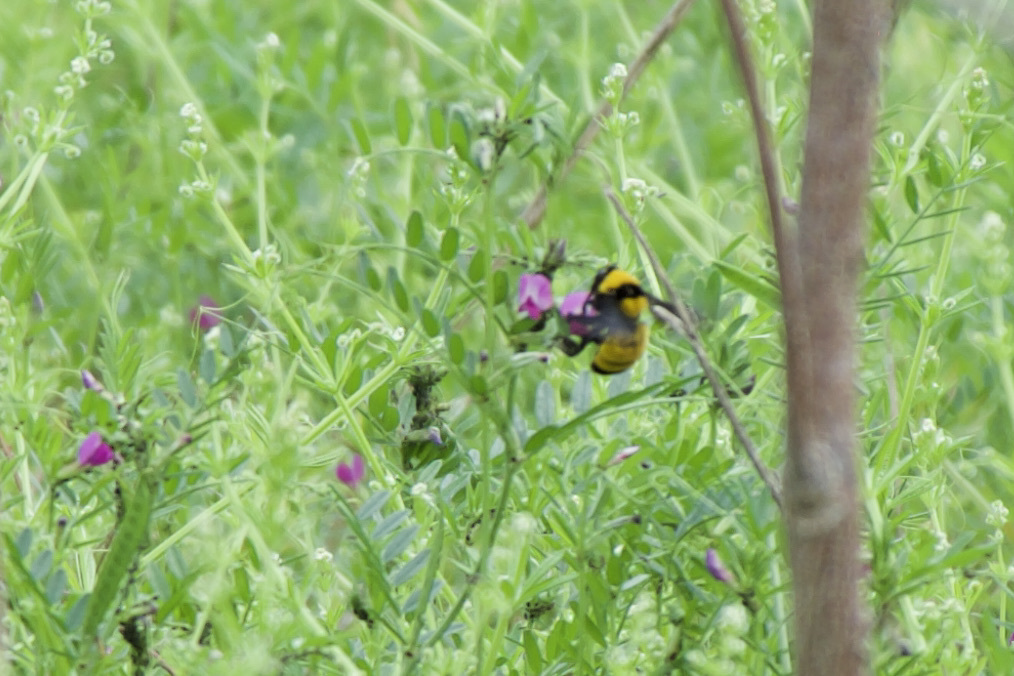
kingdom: Animalia
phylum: Arthropoda
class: Insecta
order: Hymenoptera
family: Apidae
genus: Bombus
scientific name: Bombus sonorus
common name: Sonoran bumble bee
